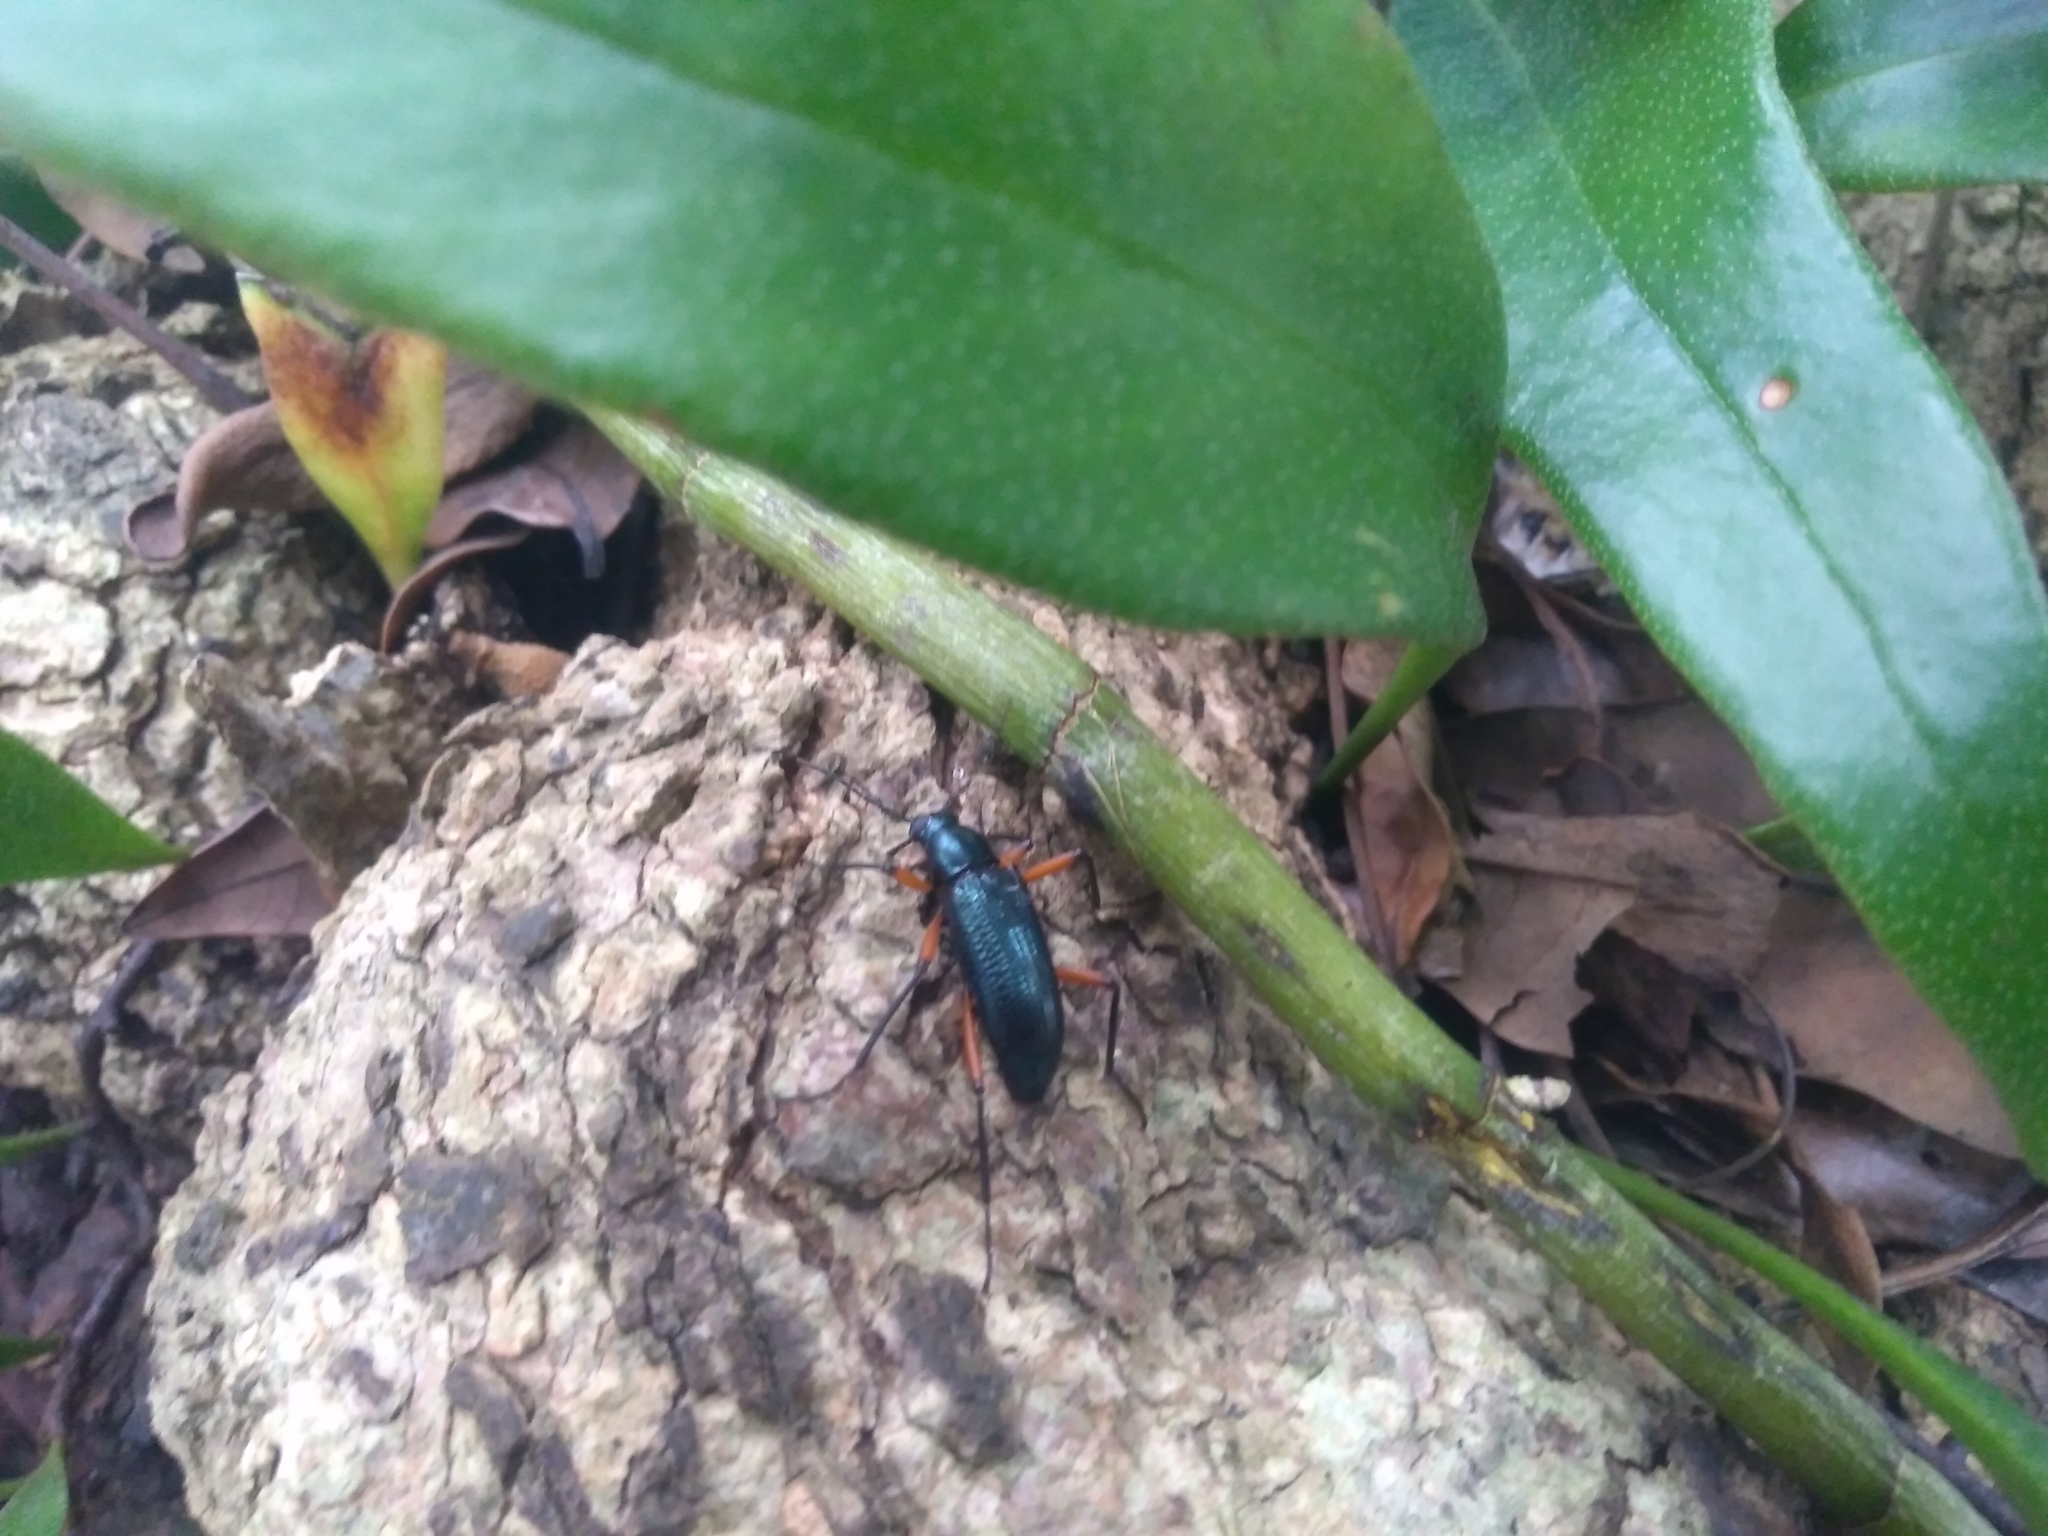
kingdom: Animalia
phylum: Arthropoda
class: Insecta
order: Coleoptera
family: Tenebrionidae
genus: Strongylium
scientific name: Strongylium erythrocephalum
